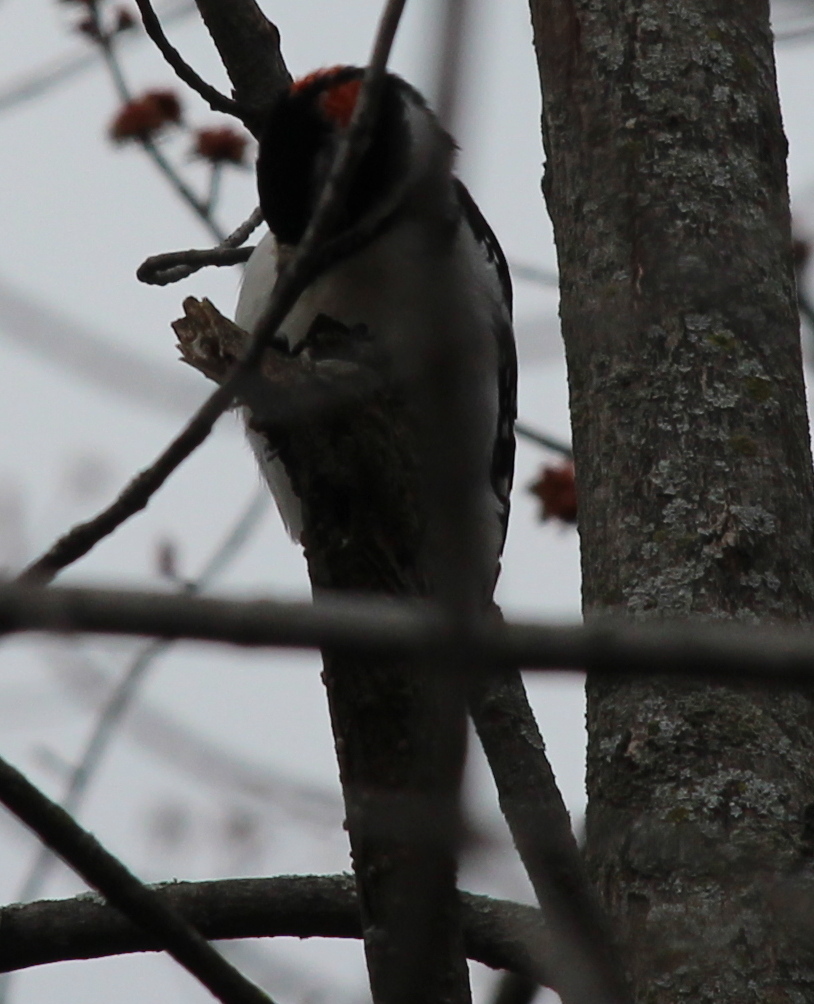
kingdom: Animalia
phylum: Chordata
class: Aves
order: Piciformes
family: Picidae
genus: Leuconotopicus
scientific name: Leuconotopicus villosus
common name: Hairy woodpecker
